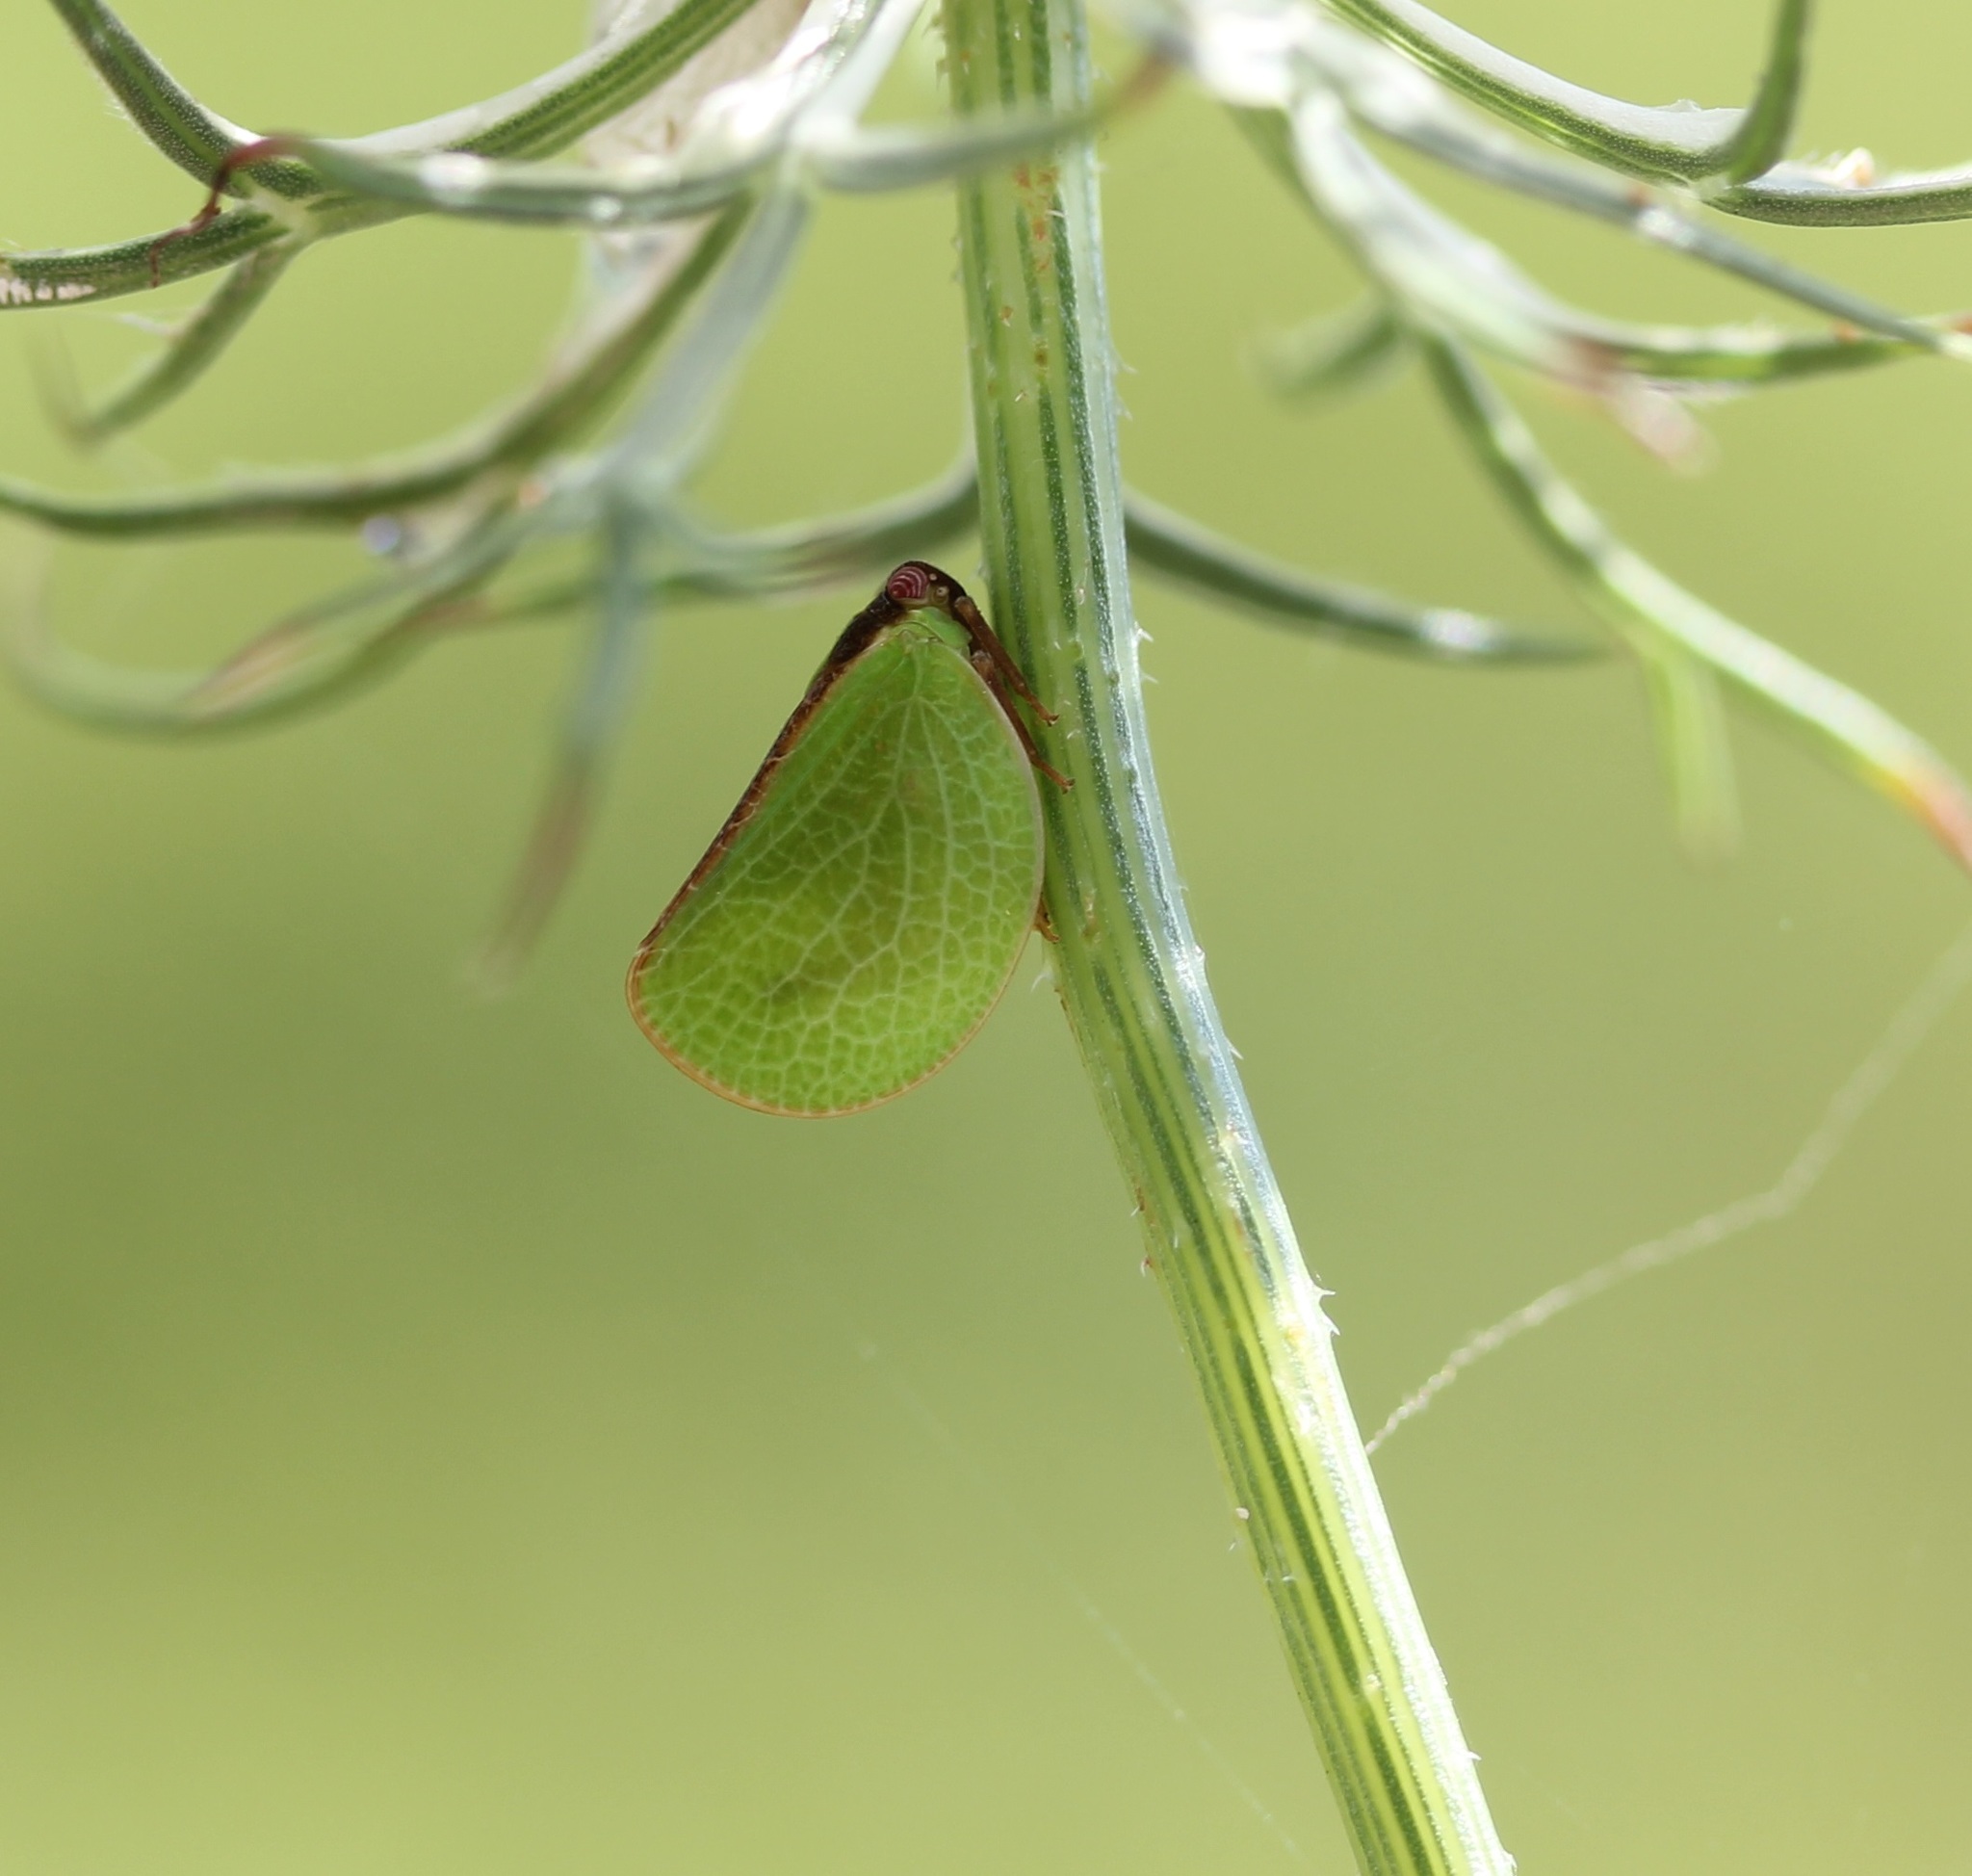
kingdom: Animalia
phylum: Arthropoda
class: Insecta
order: Hemiptera
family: Acanaloniidae
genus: Acanalonia
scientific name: Acanalonia bivittata
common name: Two-striped planthopper
